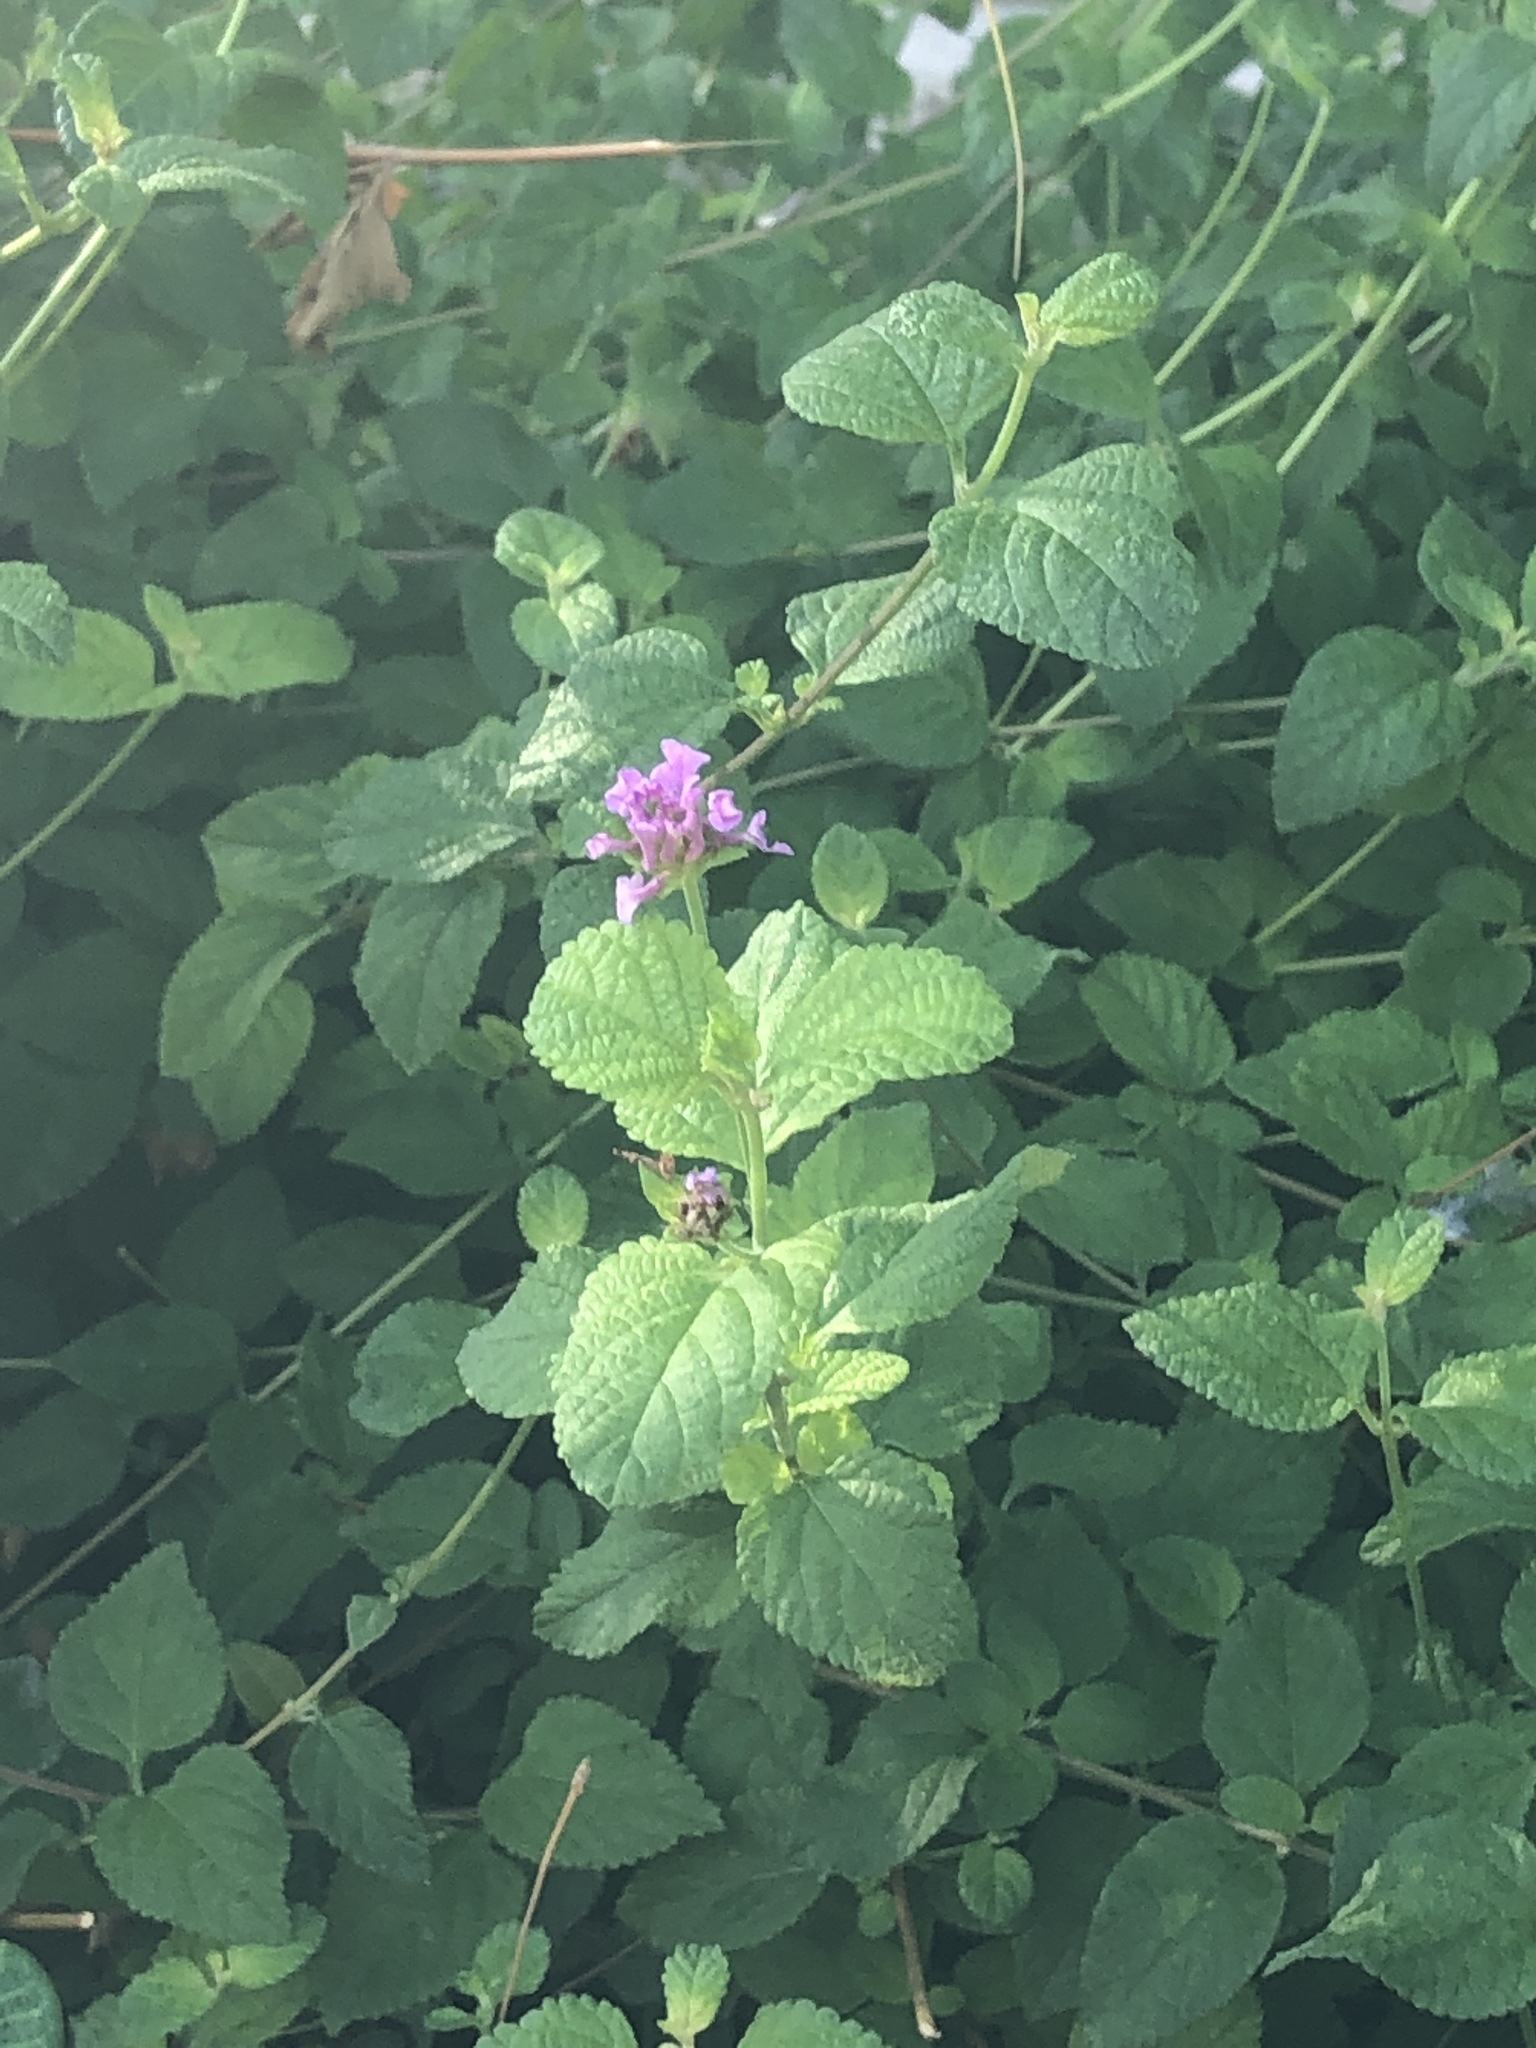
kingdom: Plantae
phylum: Tracheophyta
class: Magnoliopsida
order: Lamiales
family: Verbenaceae
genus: Lantana
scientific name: Lantana montevidensis
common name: Trailing shrubverbena
